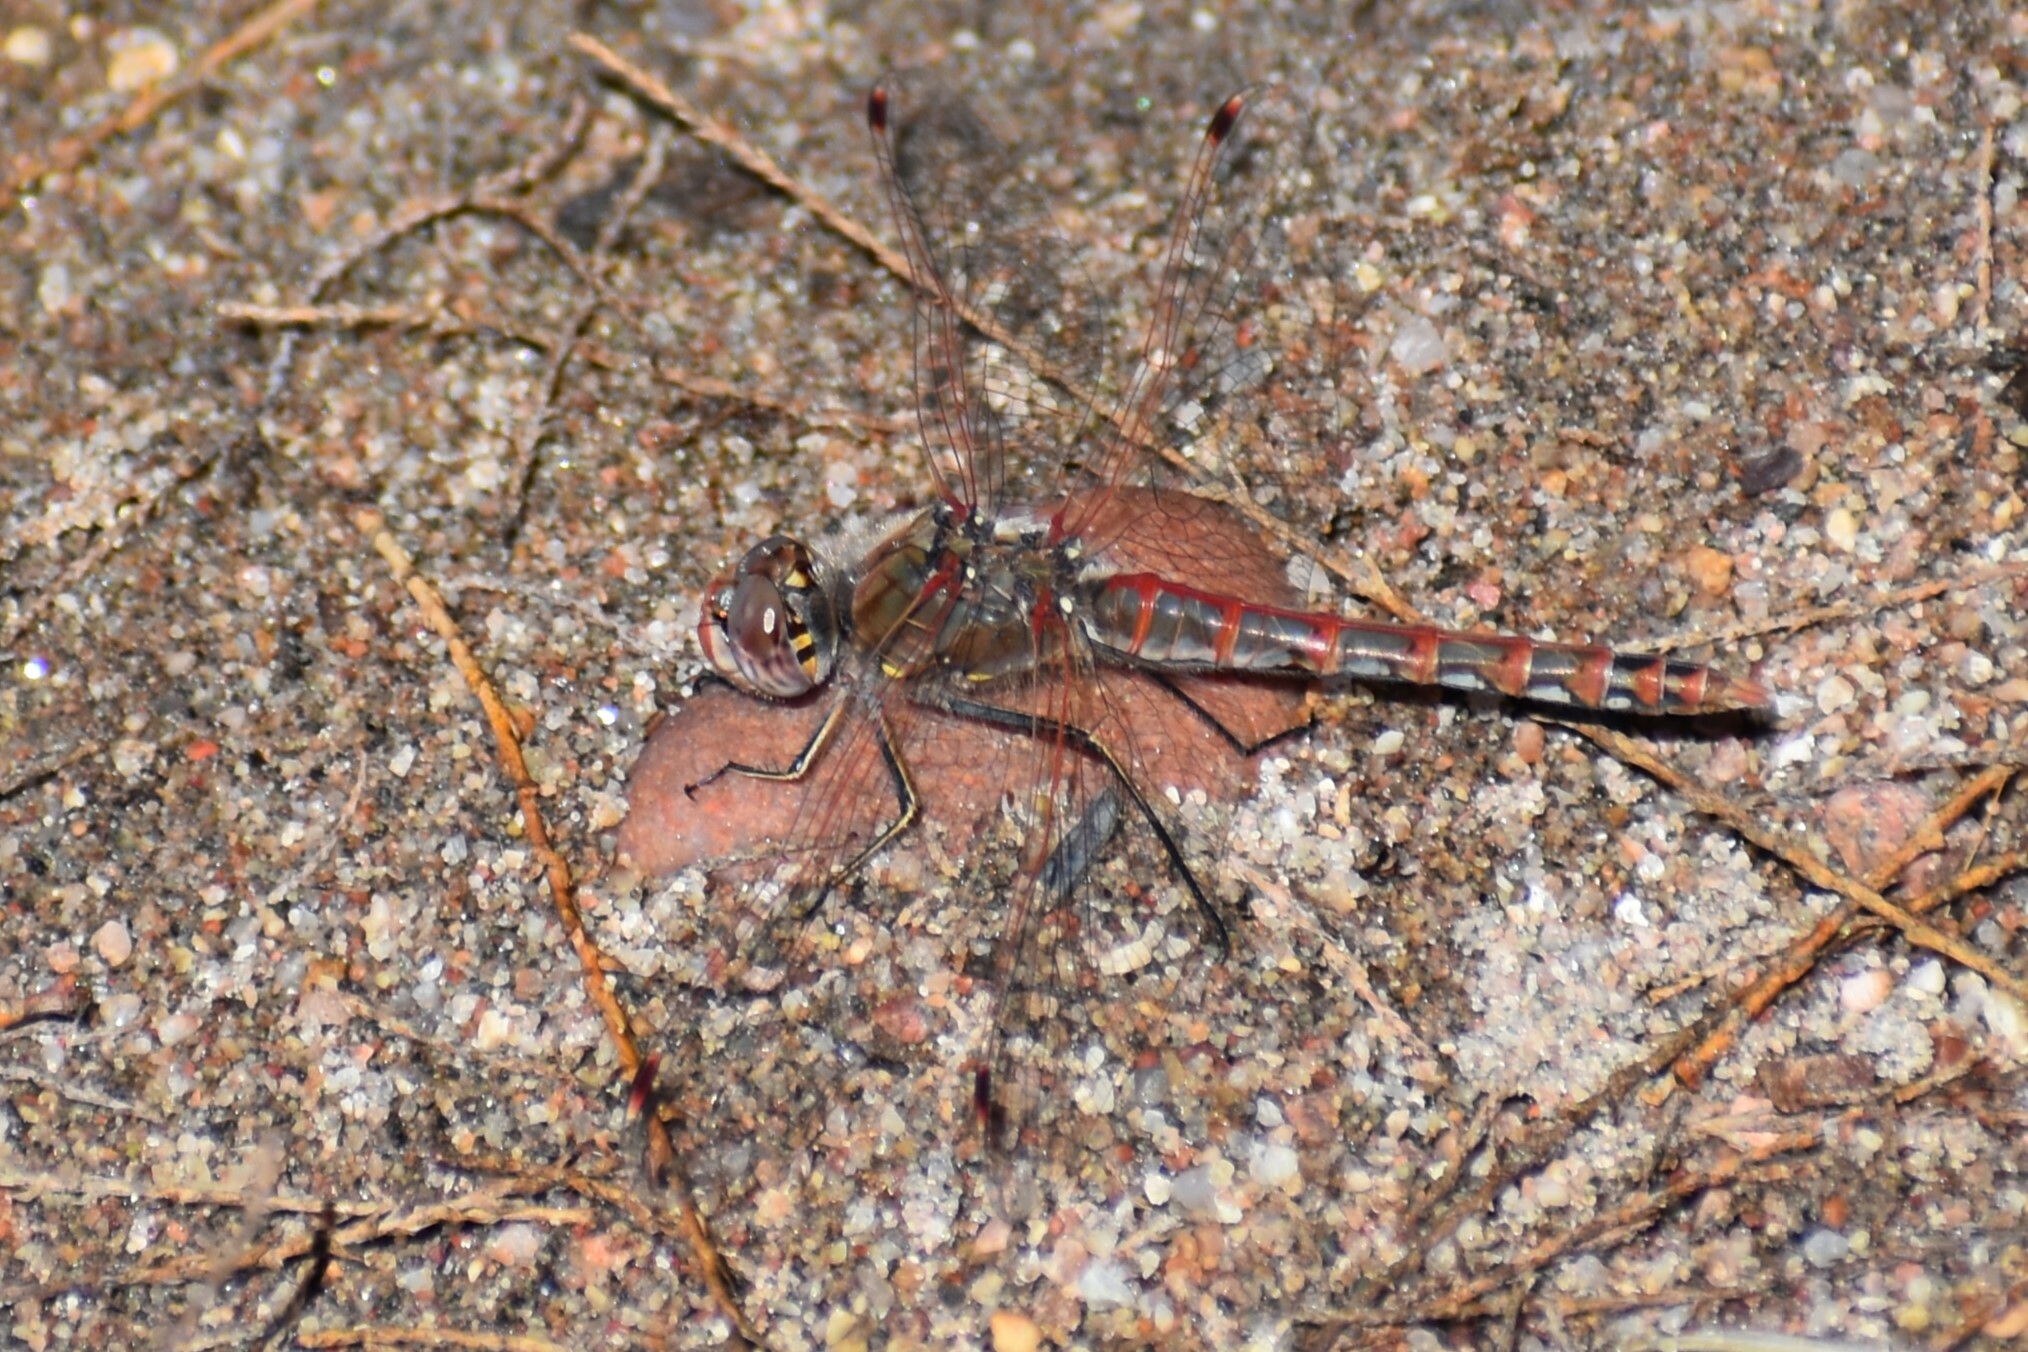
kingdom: Animalia
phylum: Arthropoda
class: Insecta
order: Odonata
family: Libellulidae
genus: Sympetrum
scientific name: Sympetrum corruptum
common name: Variegated meadowhawk
